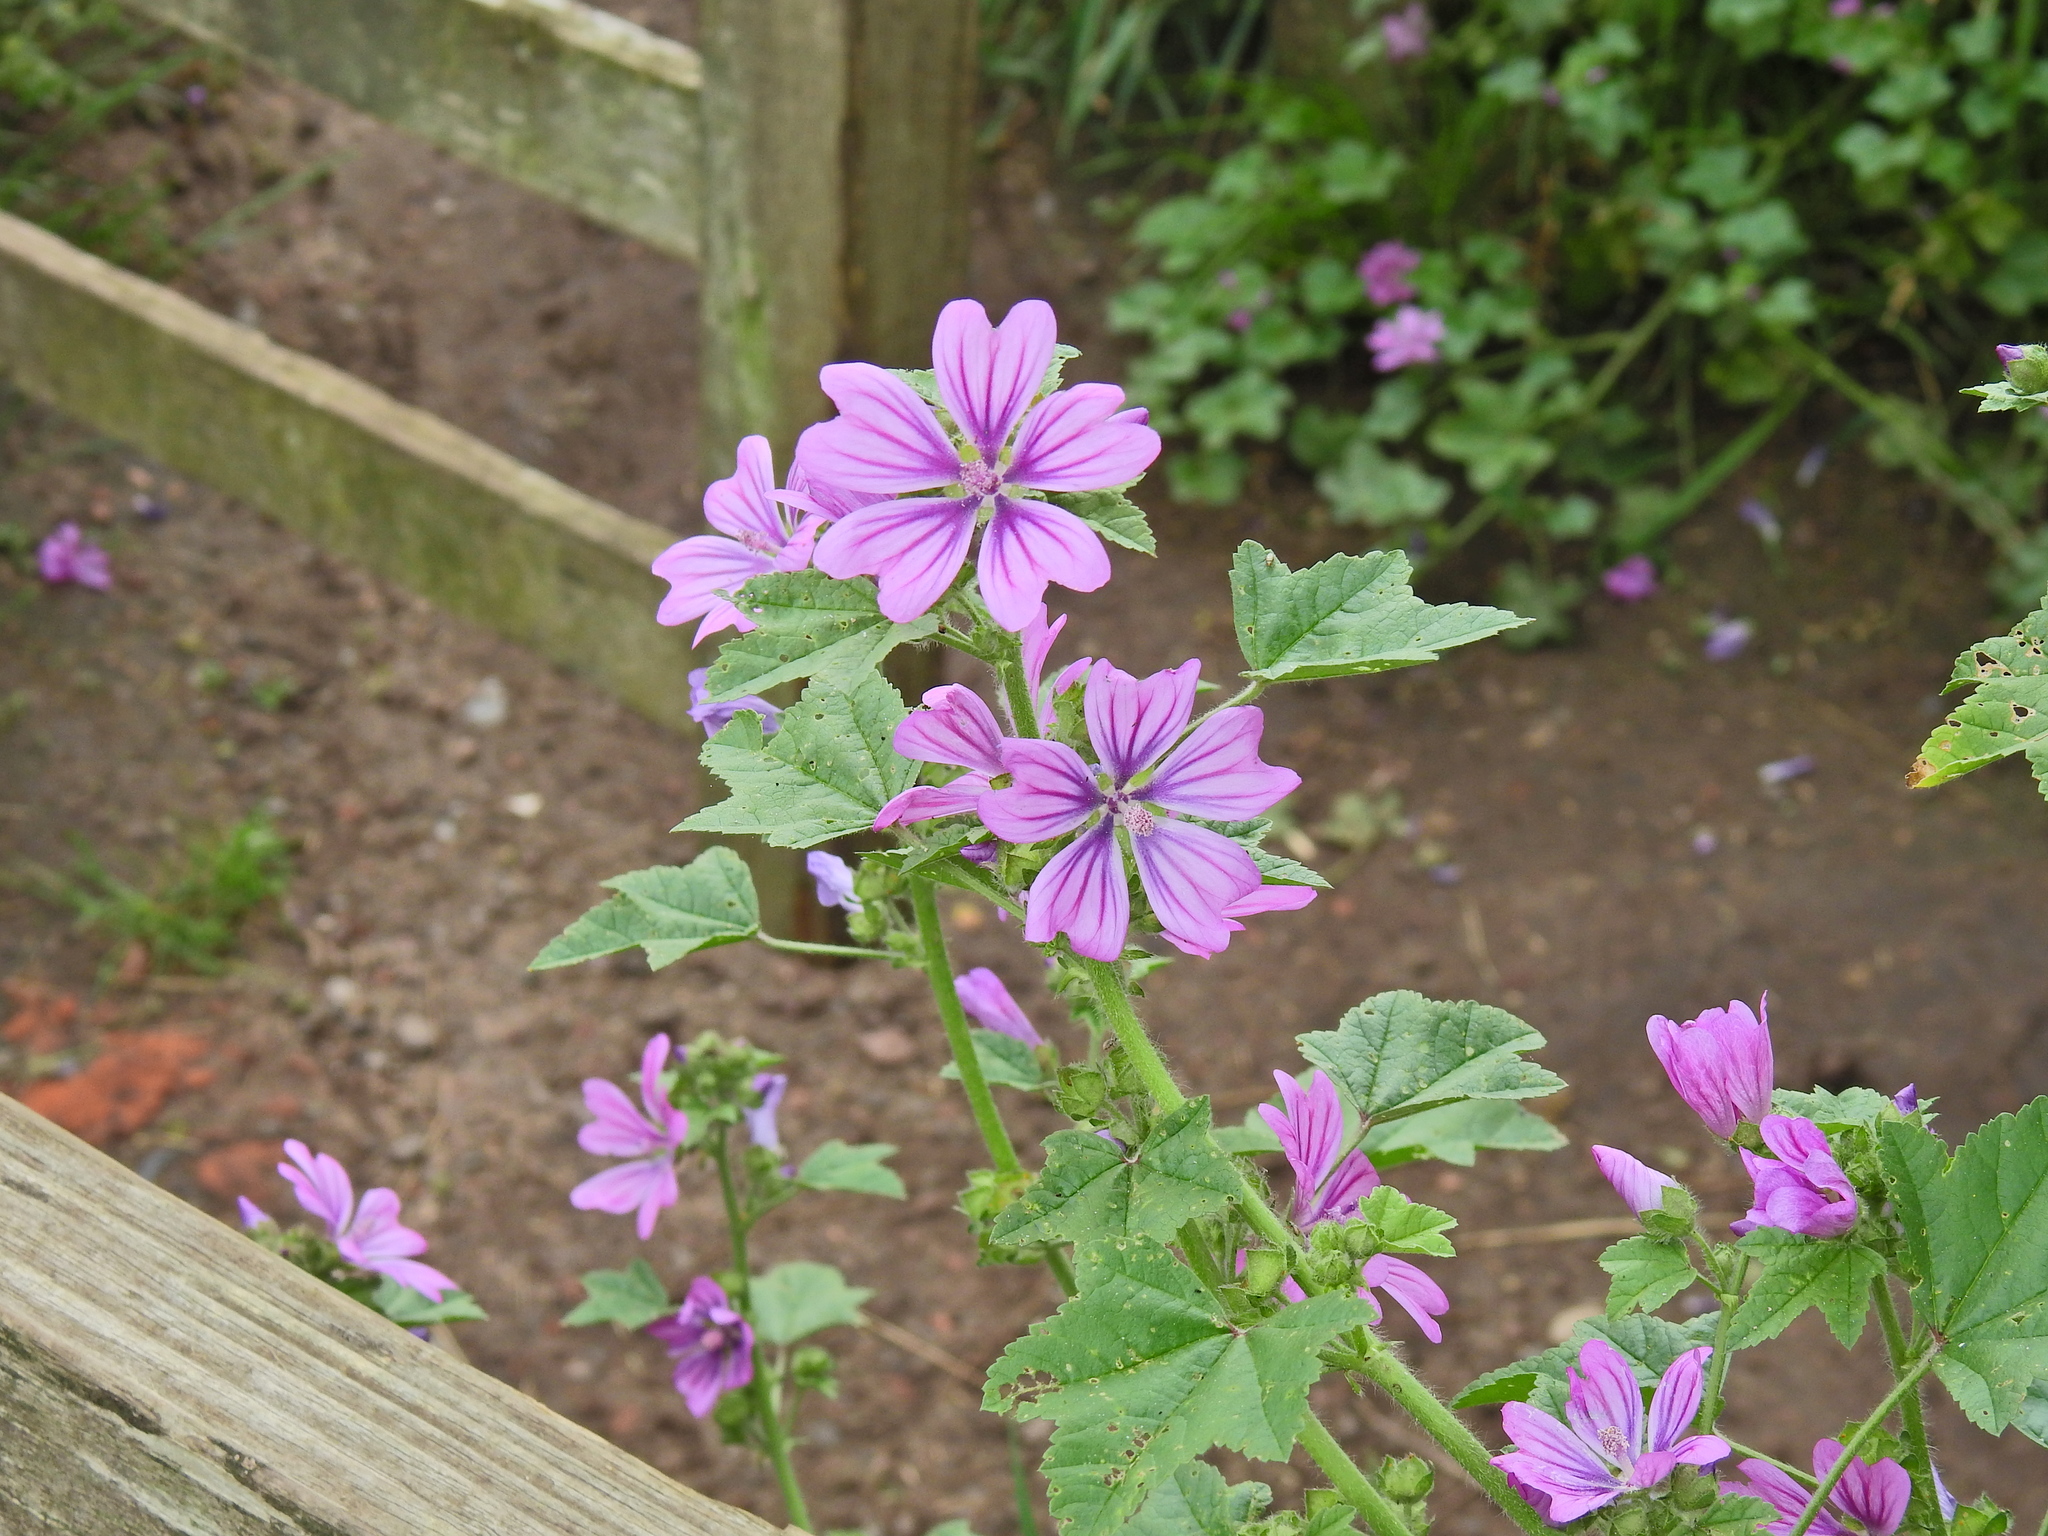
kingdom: Plantae
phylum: Tracheophyta
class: Magnoliopsida
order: Malvales
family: Malvaceae
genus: Malva
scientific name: Malva sylvestris
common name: Common mallow
